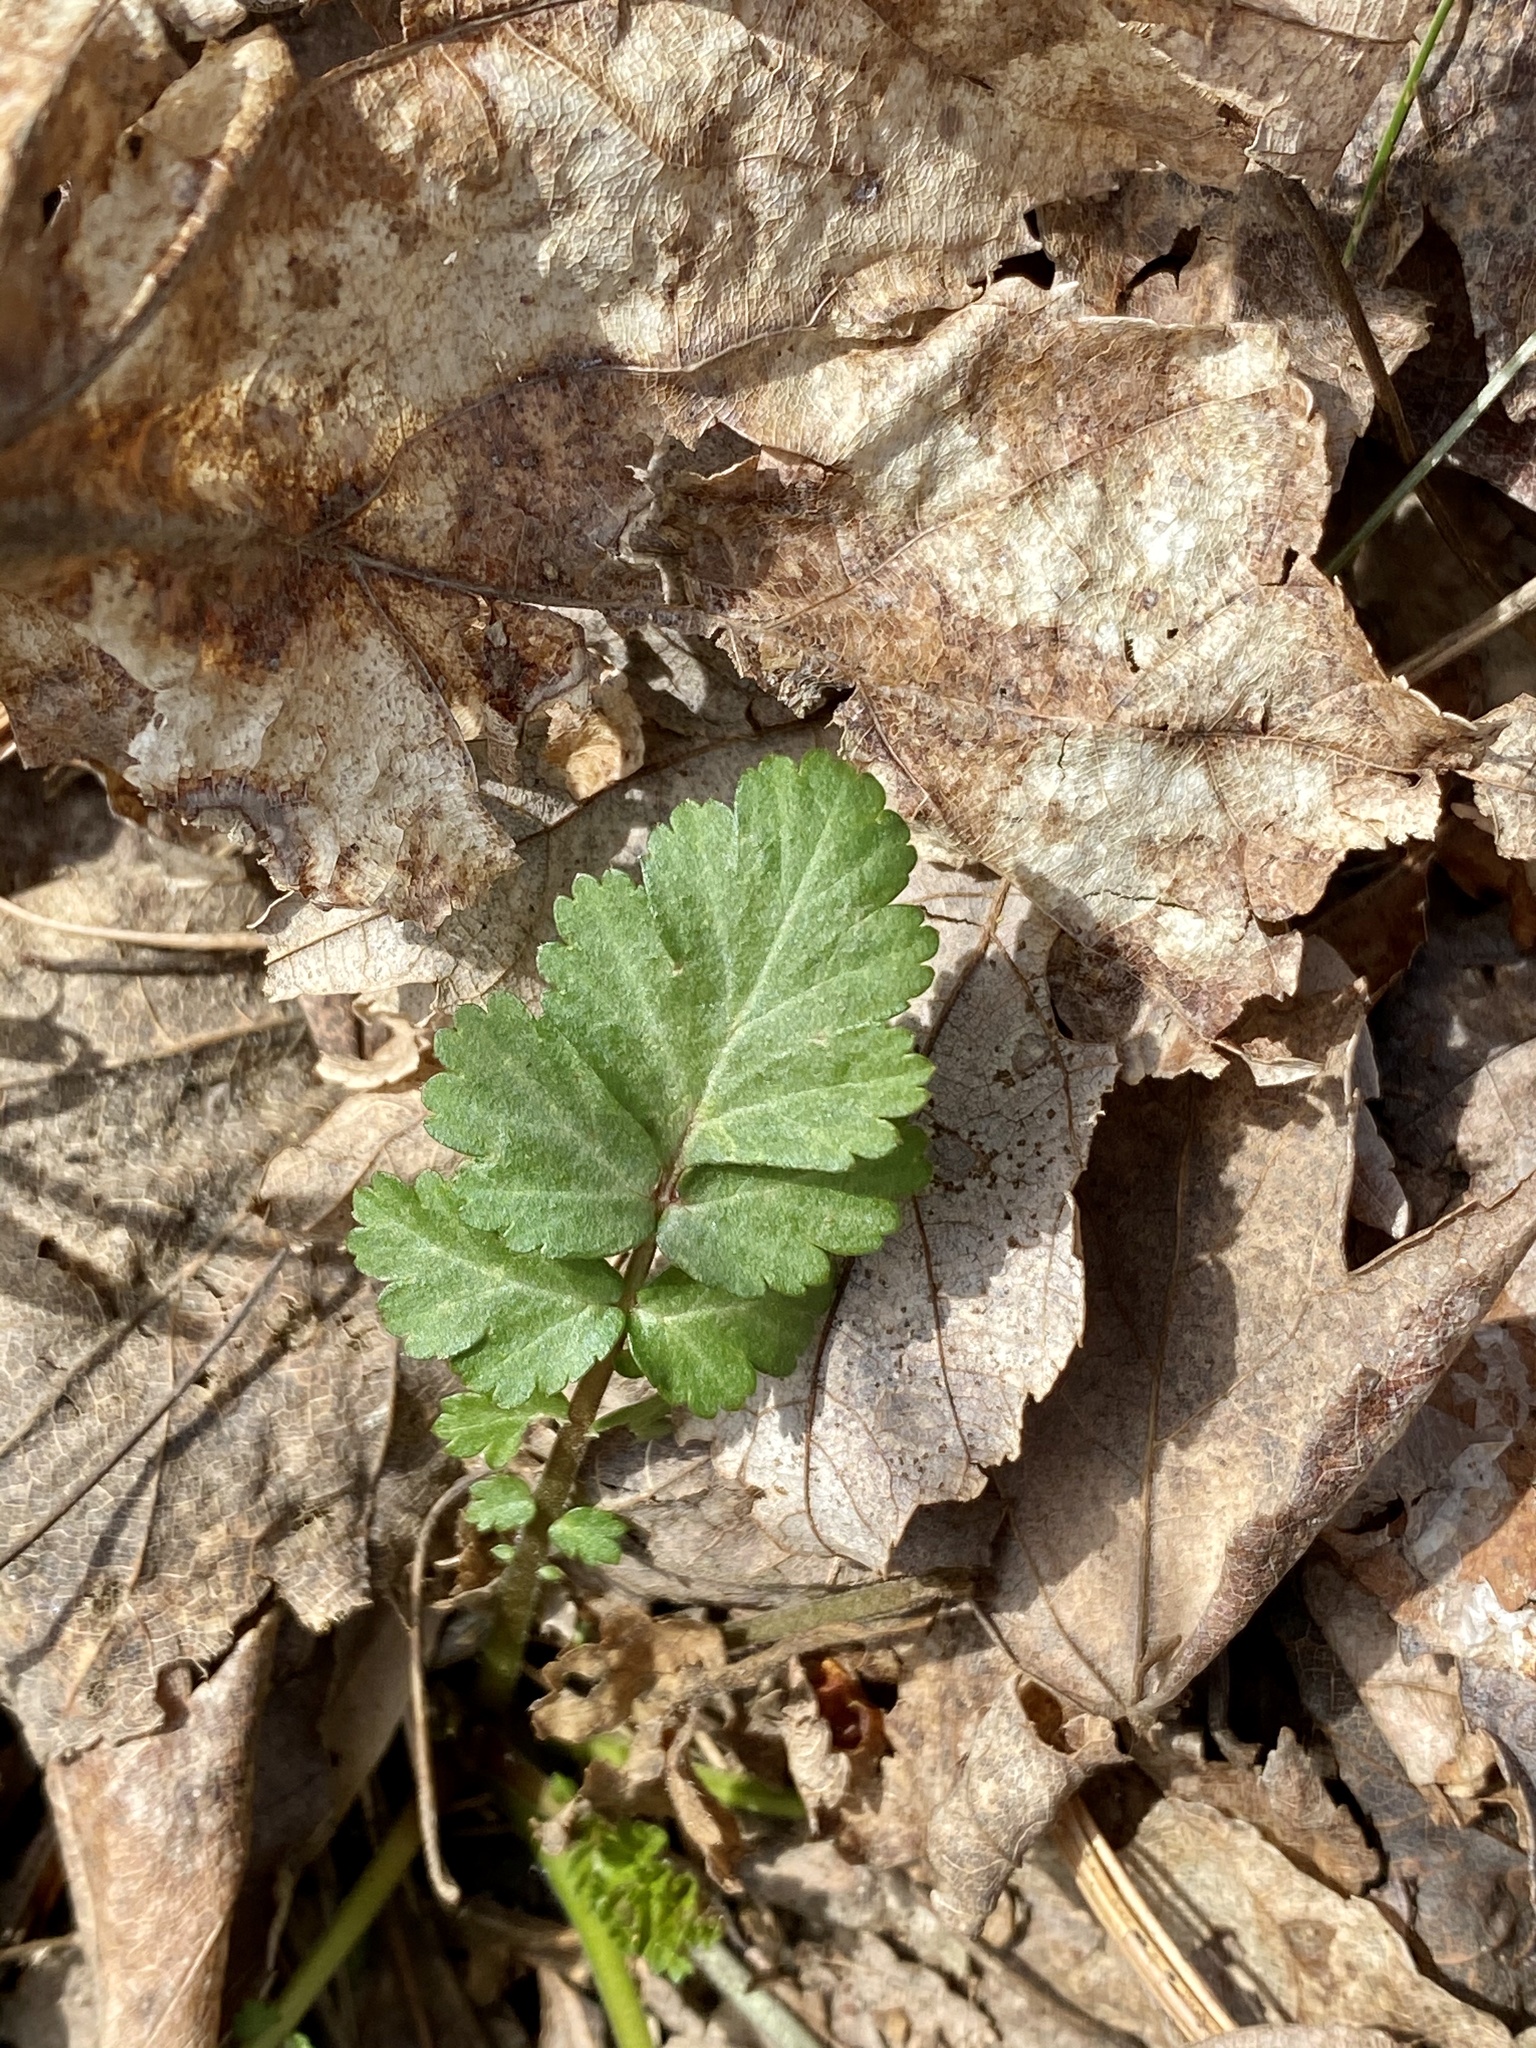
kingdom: Plantae
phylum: Tracheophyta
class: Magnoliopsida
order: Rosales
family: Rosaceae
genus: Geum
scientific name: Geum canadense
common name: White avens
